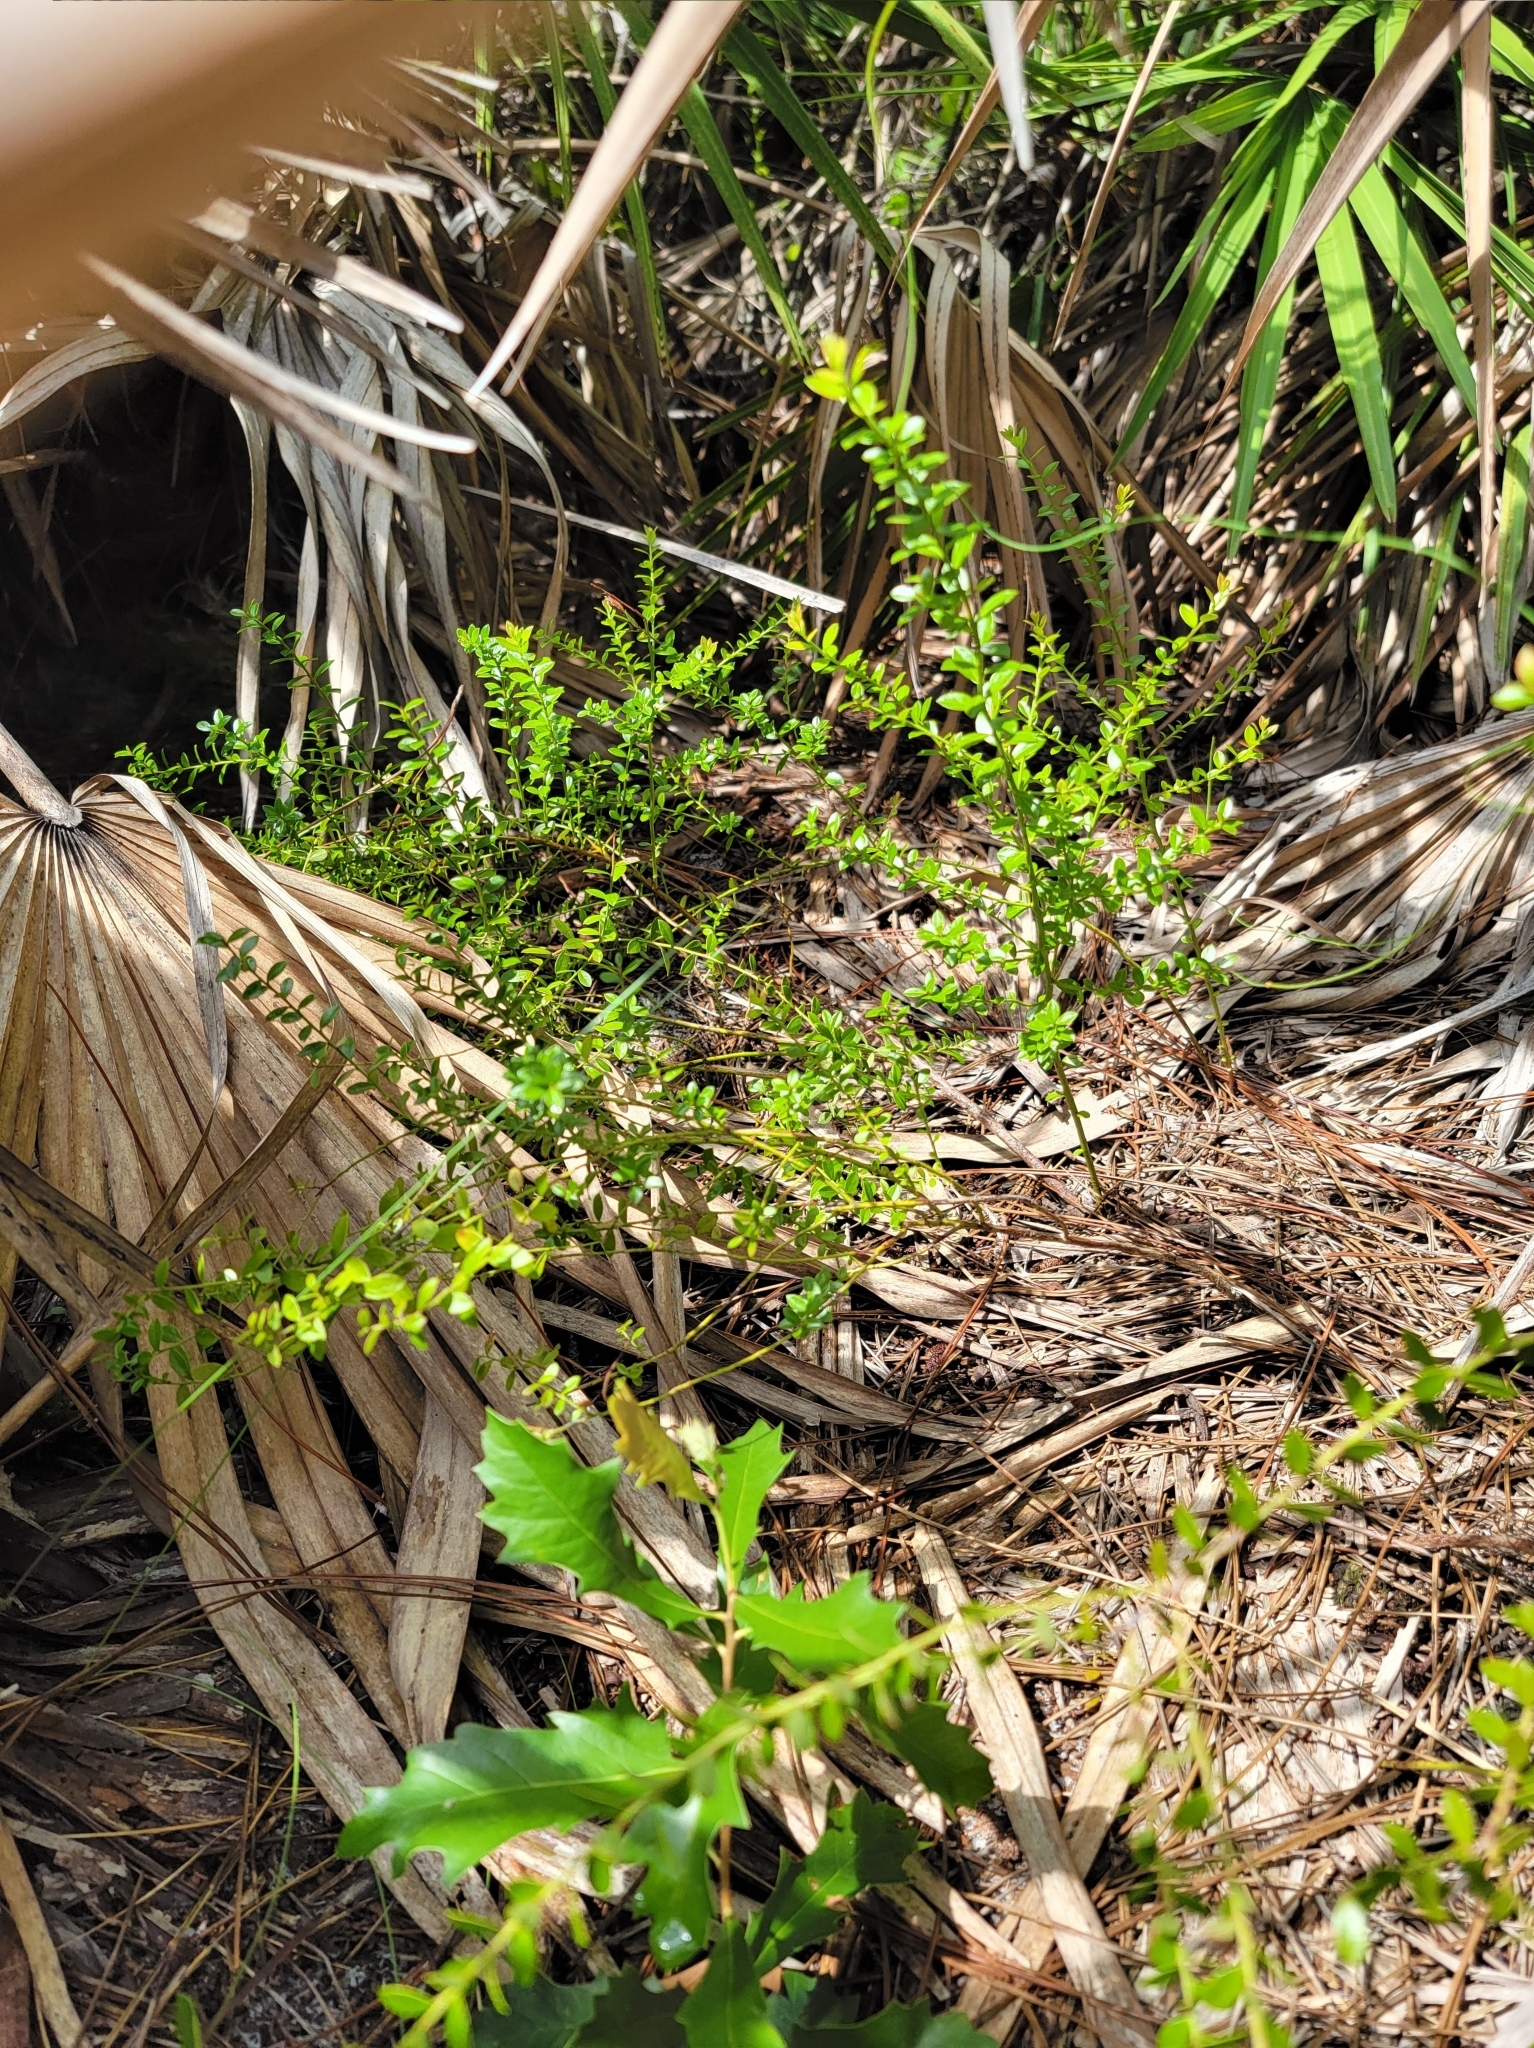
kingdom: Plantae
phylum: Tracheophyta
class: Magnoliopsida
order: Ericales
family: Ericaceae
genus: Vaccinium
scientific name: Vaccinium myrsinites
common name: Evergreen blueberry
